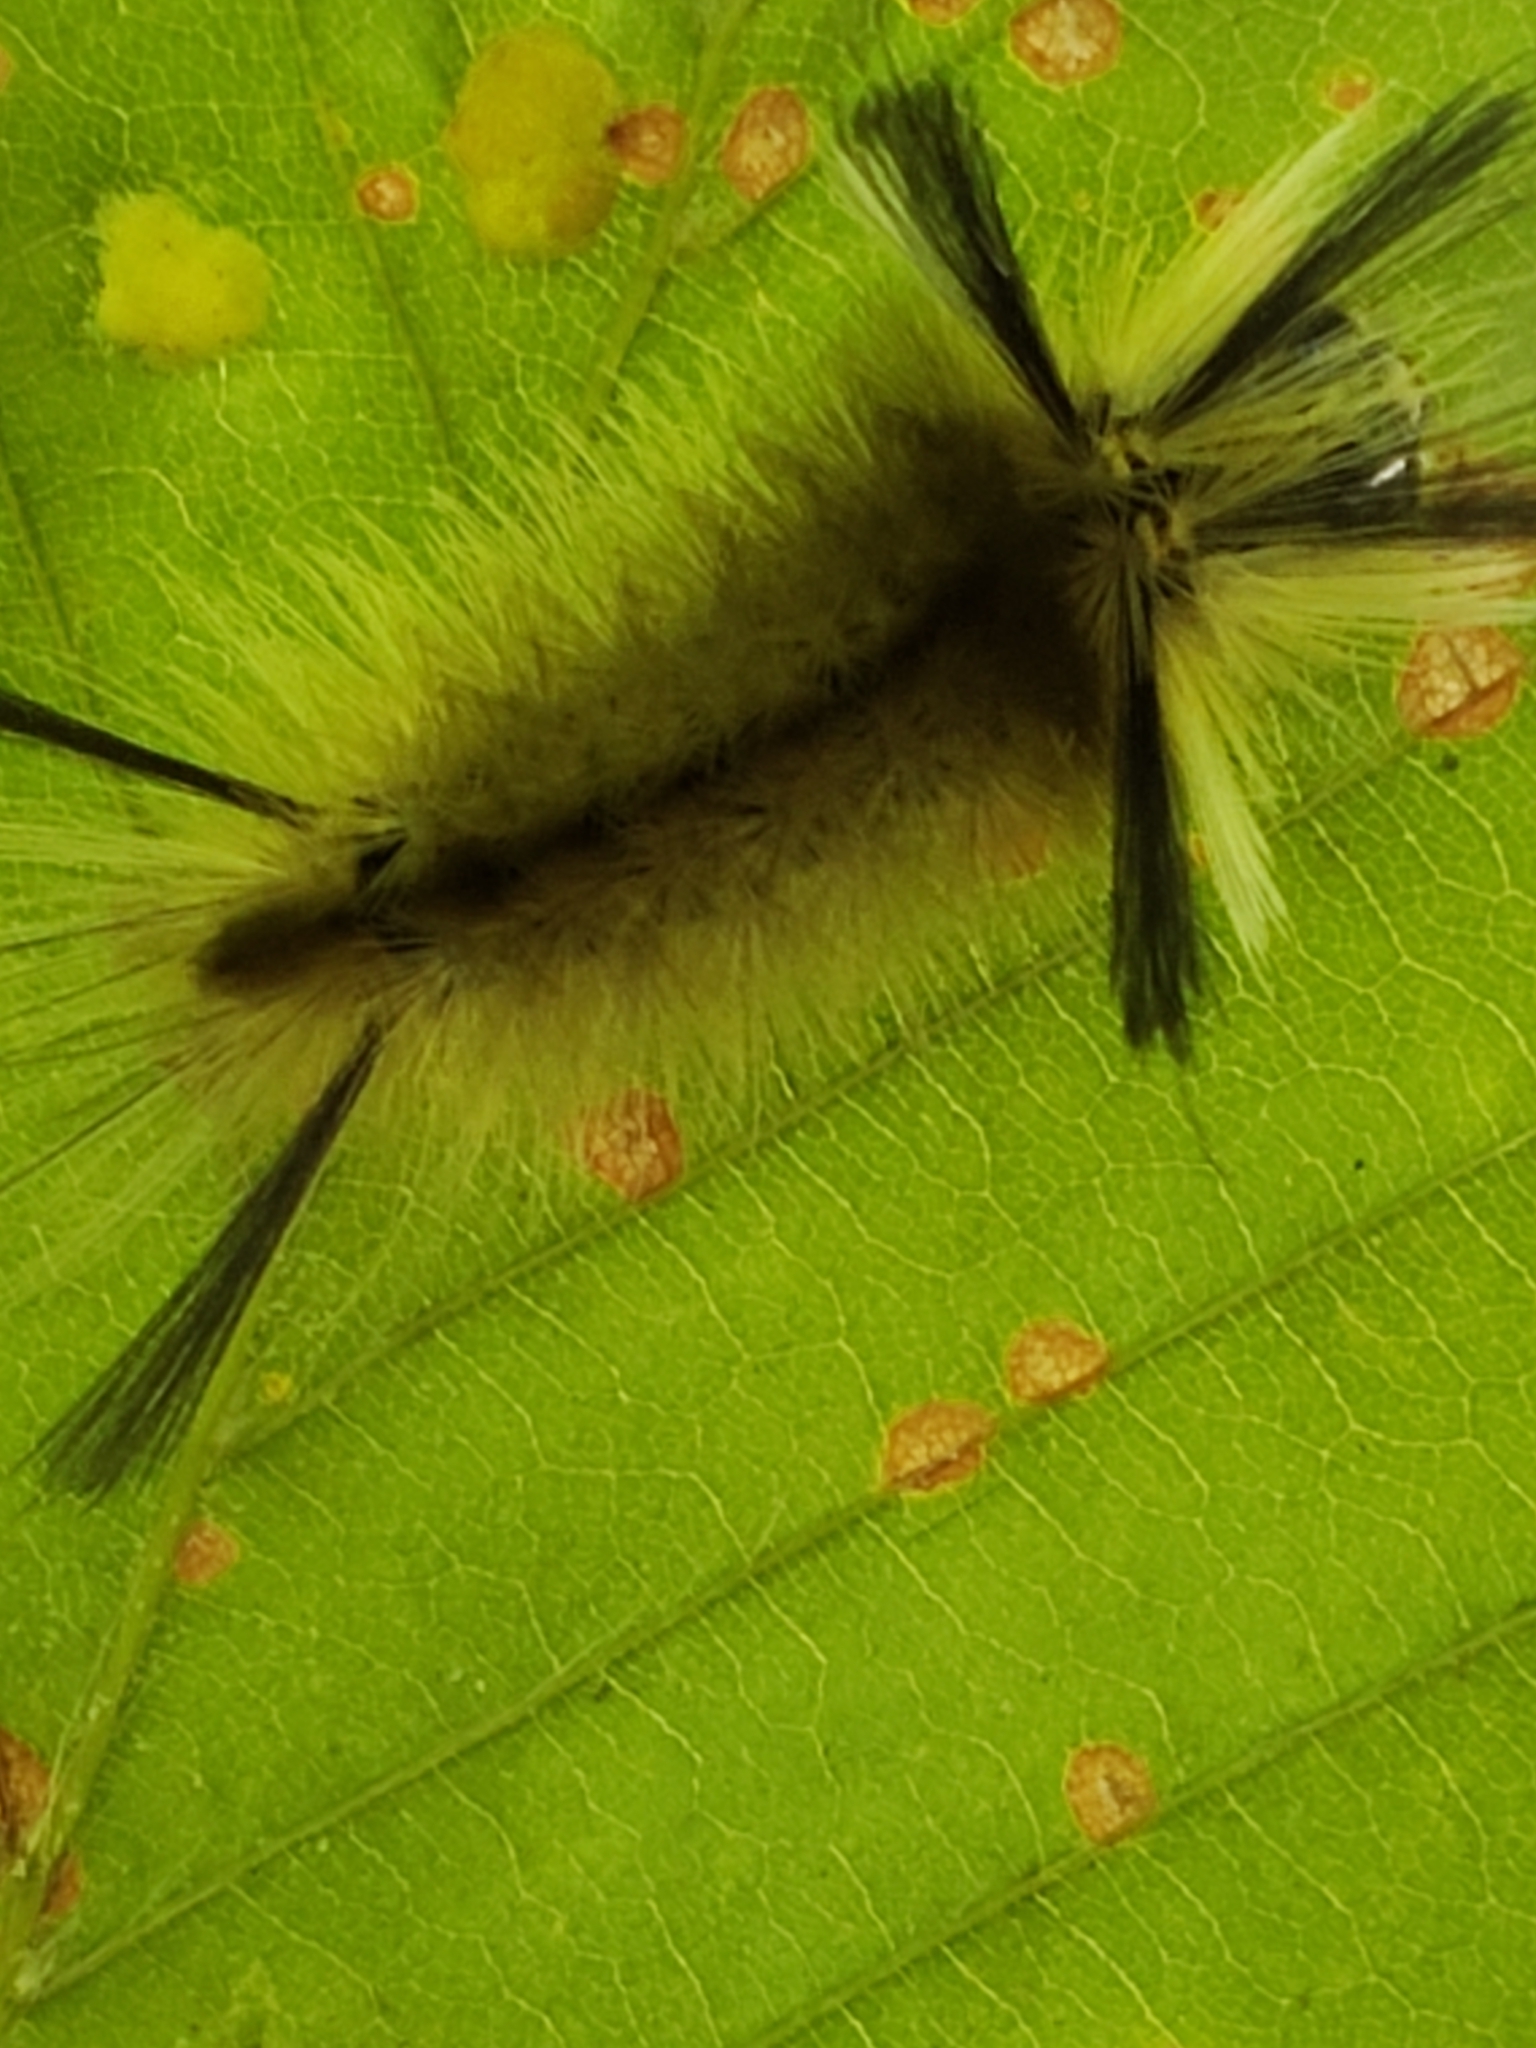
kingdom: Animalia
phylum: Arthropoda
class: Insecta
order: Lepidoptera
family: Erebidae
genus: Halysidota
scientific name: Halysidota tessellaris
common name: Banded tussock moth
